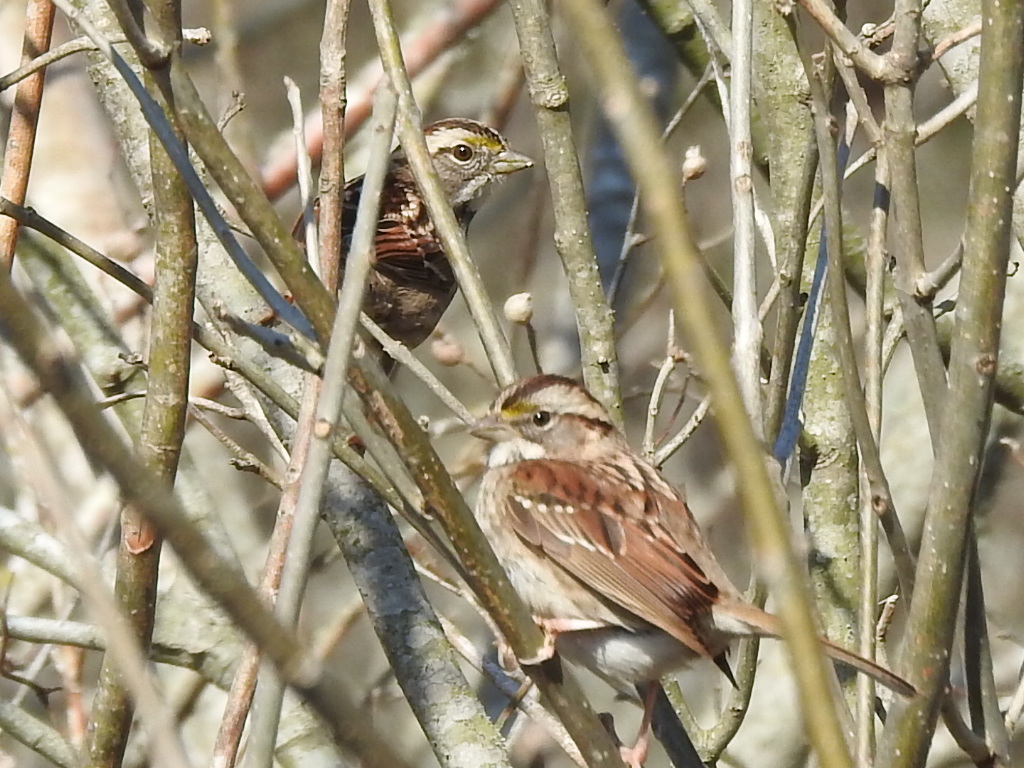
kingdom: Animalia
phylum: Chordata
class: Aves
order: Passeriformes
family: Passerellidae
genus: Zonotrichia
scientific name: Zonotrichia albicollis
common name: White-throated sparrow
